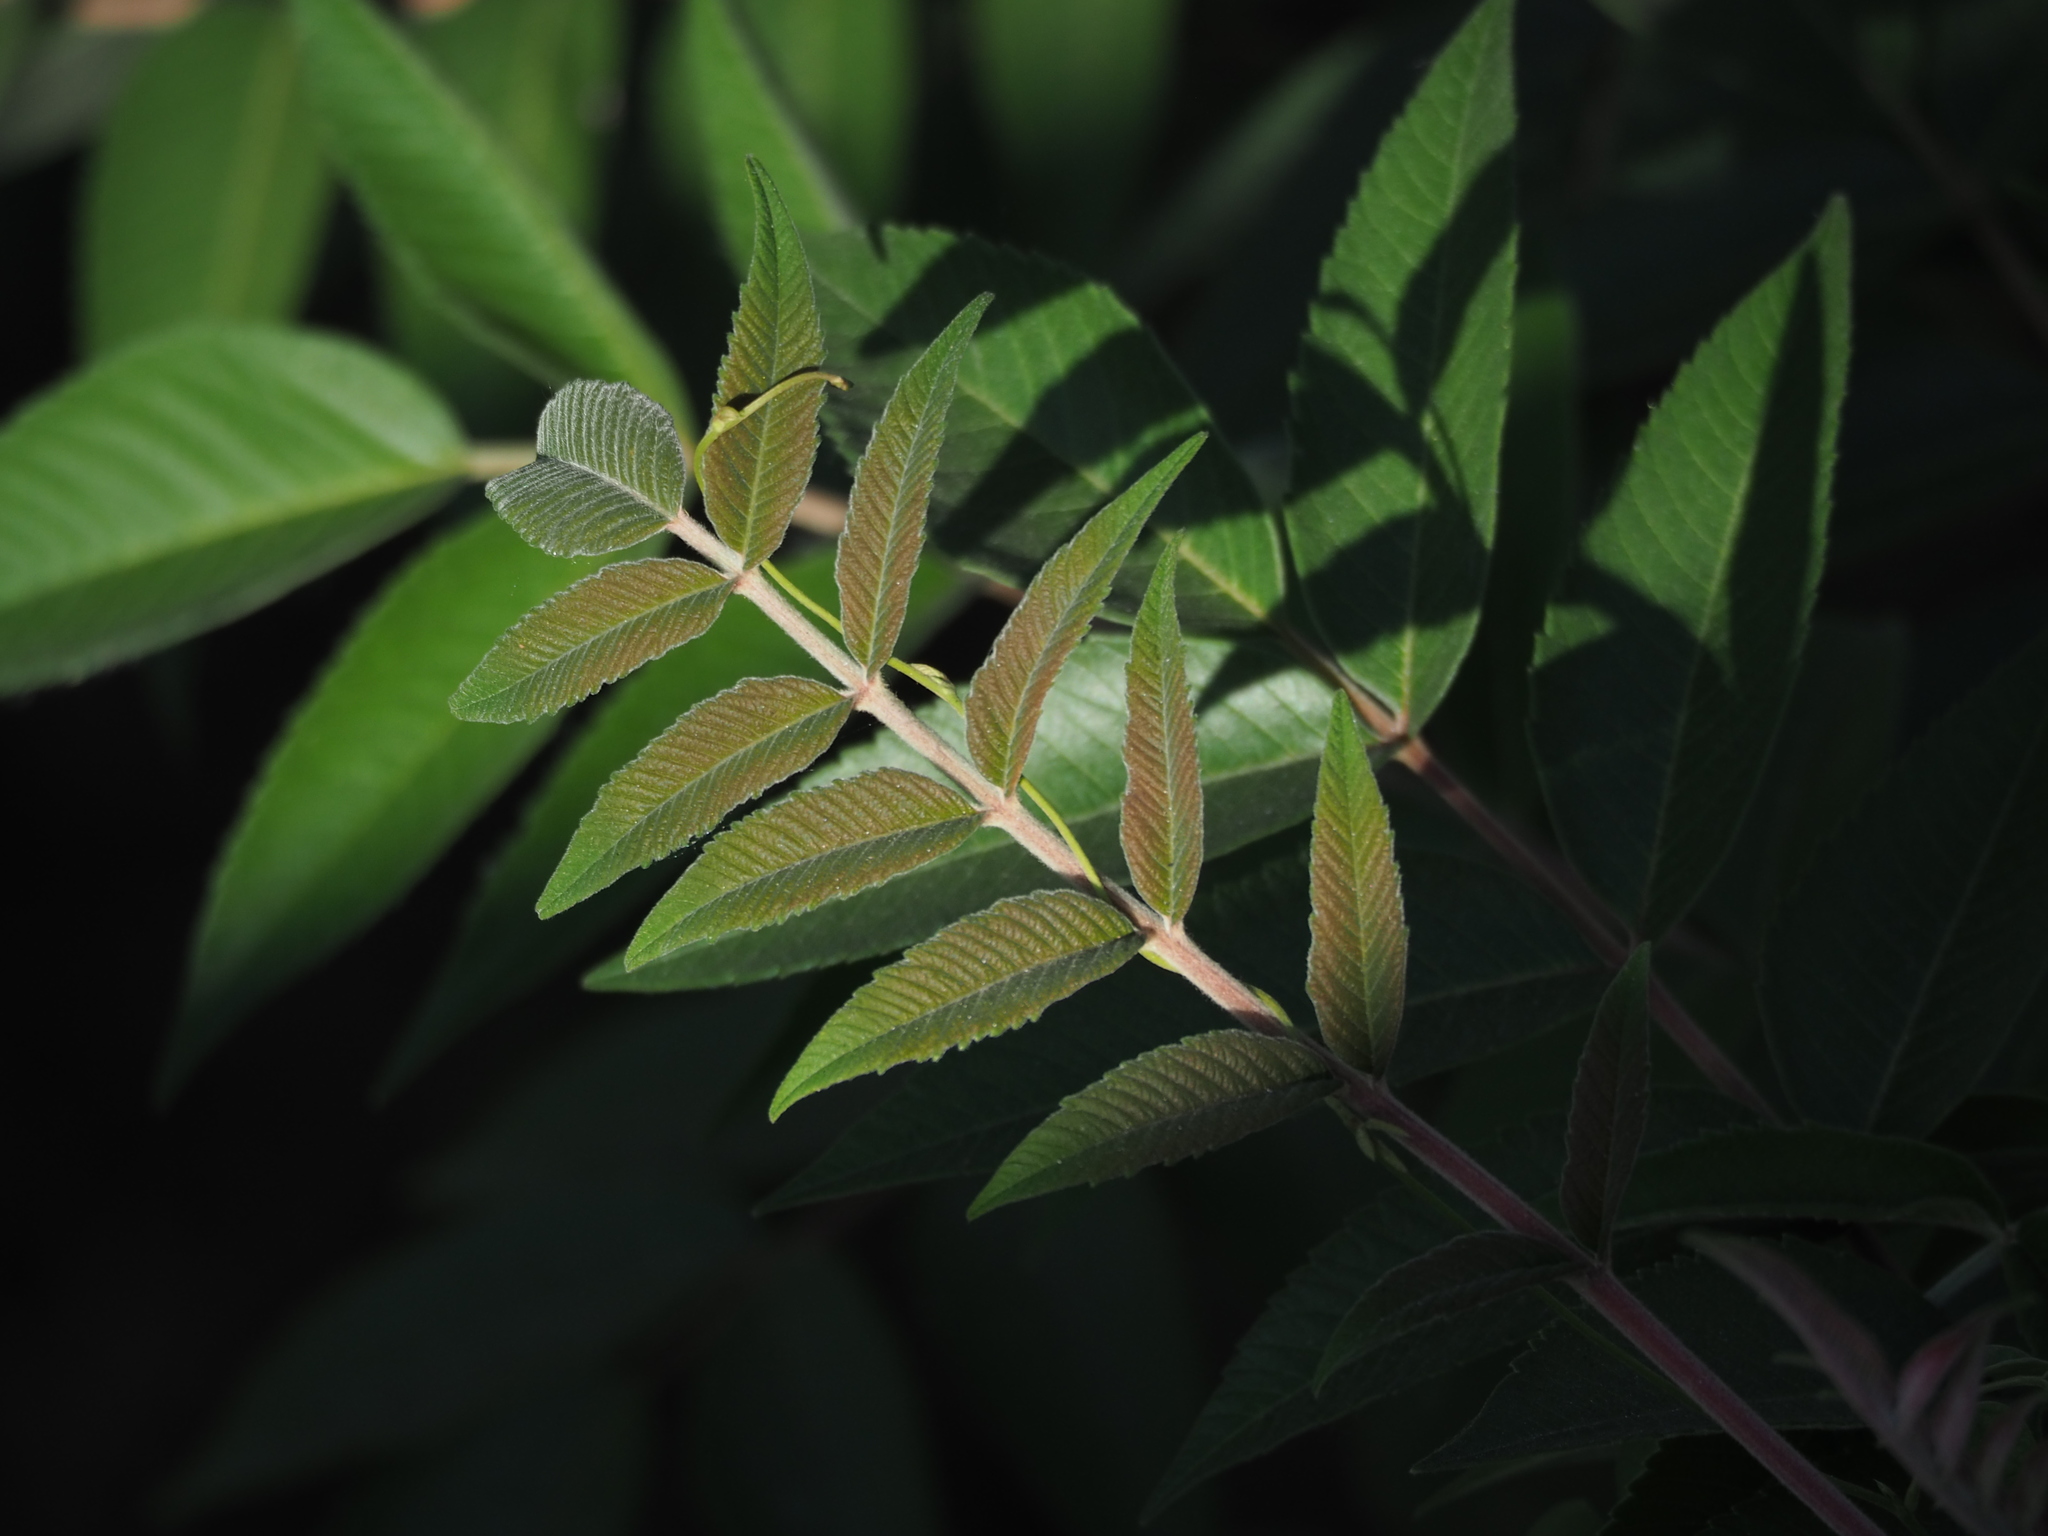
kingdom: Plantae
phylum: Tracheophyta
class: Magnoliopsida
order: Sapindales
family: Anacardiaceae
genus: Rhus
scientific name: Rhus chinensis
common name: Chinese gall
